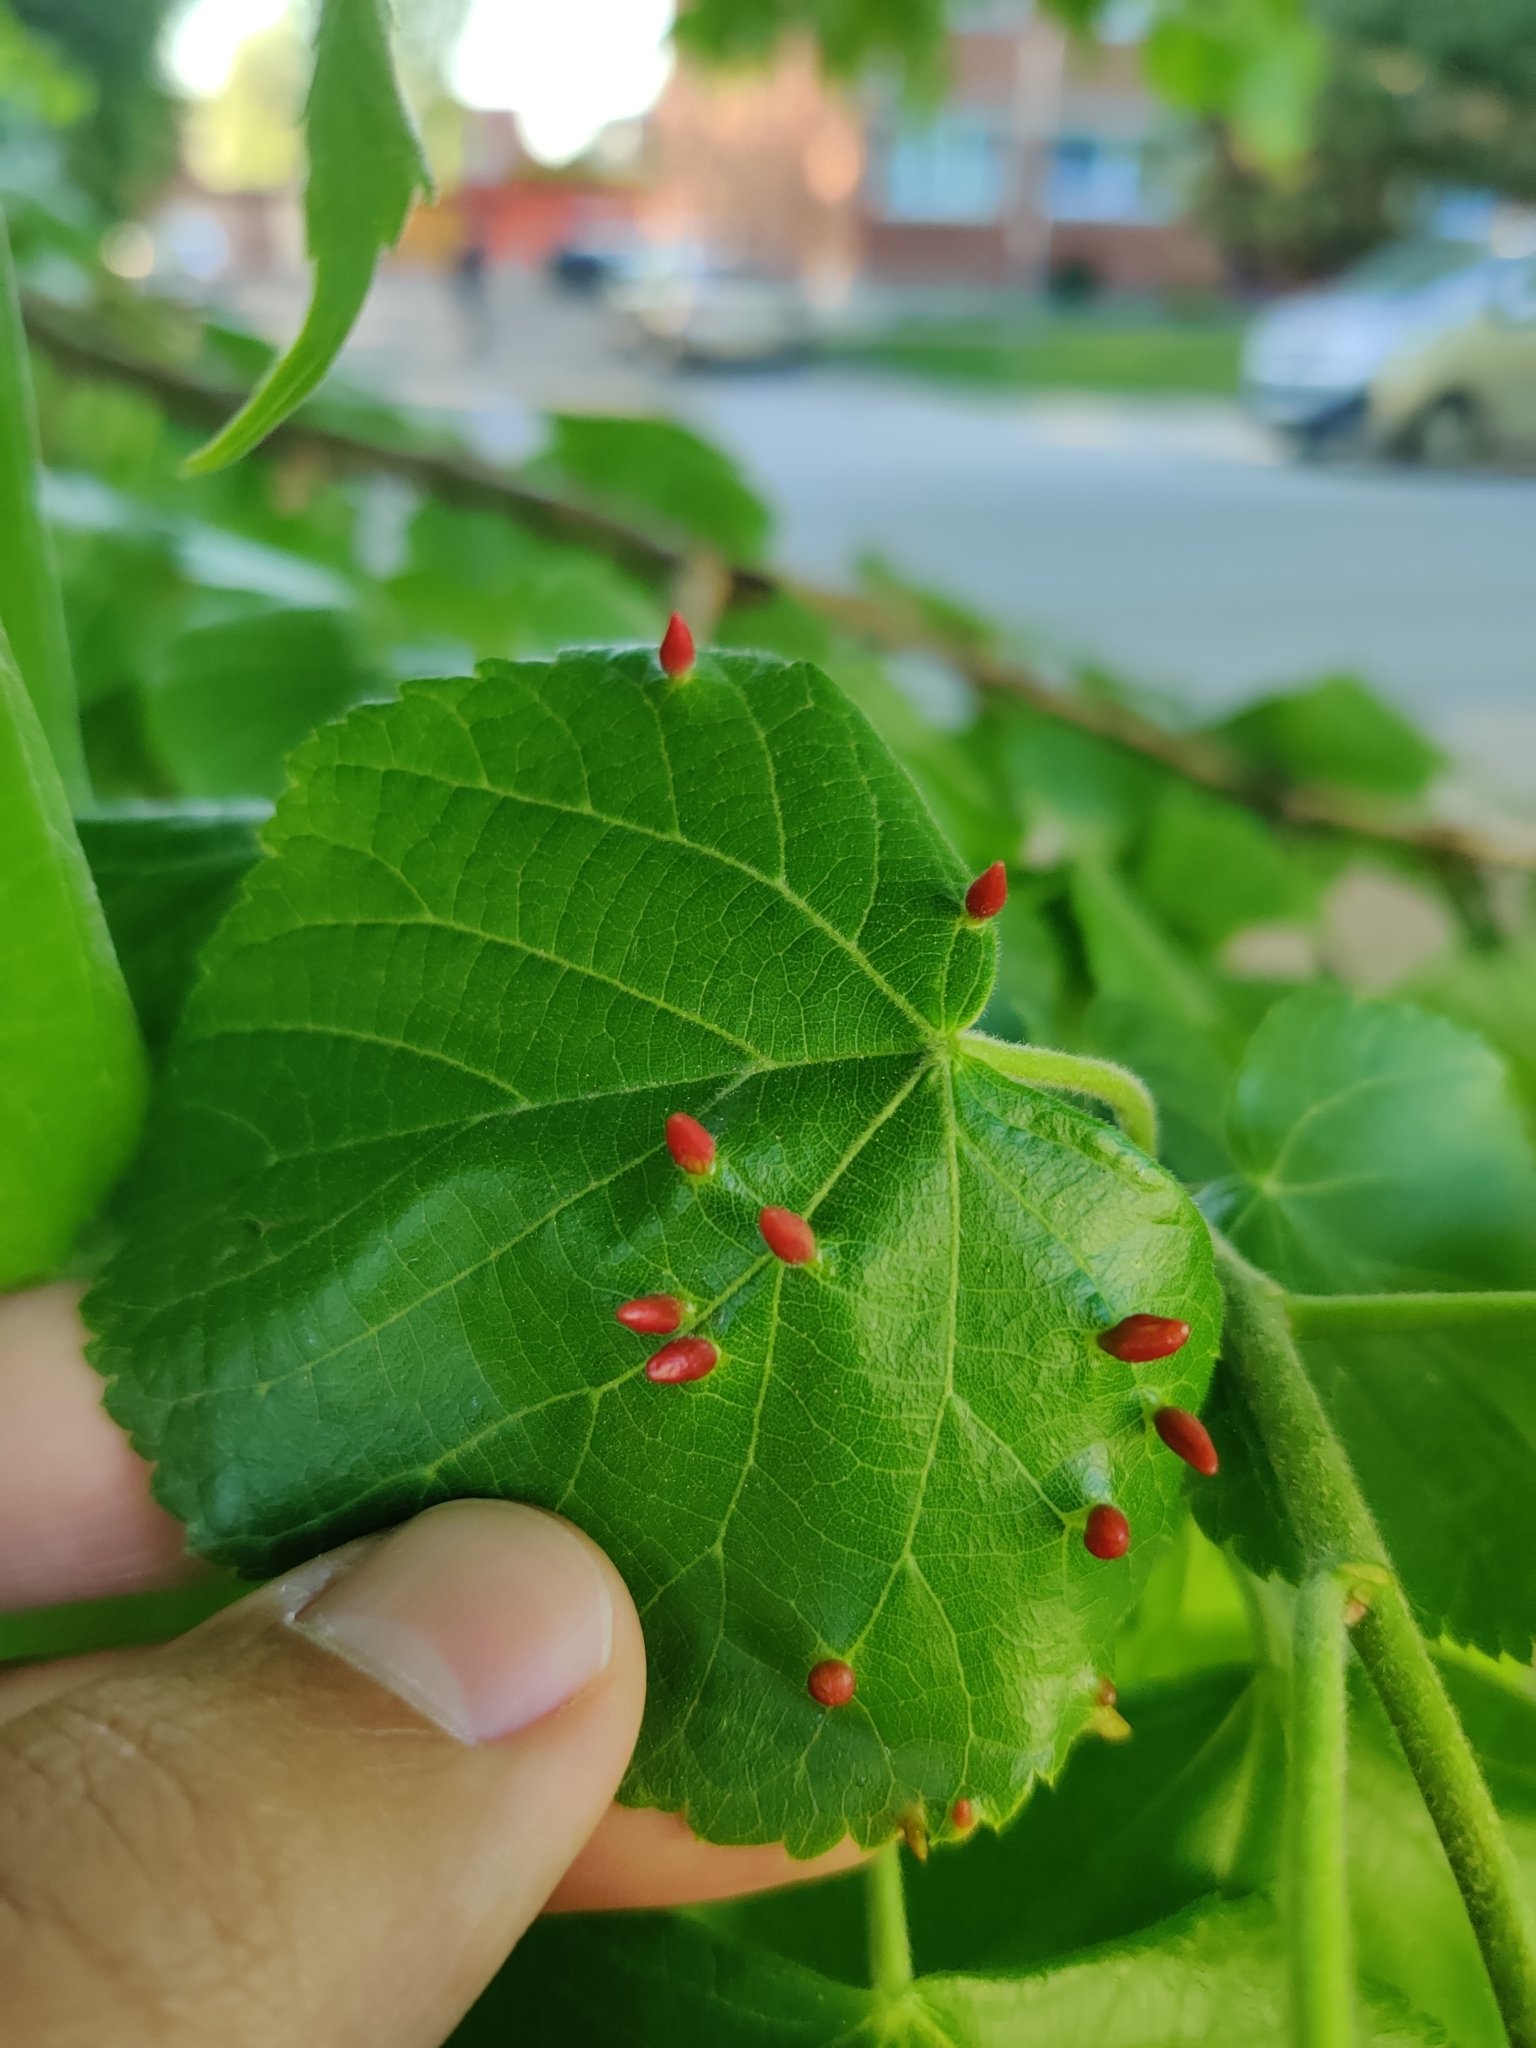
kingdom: Animalia
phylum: Arthropoda
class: Arachnida
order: Trombidiformes
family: Eriophyidae
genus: Eriophyes
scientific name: Eriophyes tiliae
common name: Red nail gall mite
